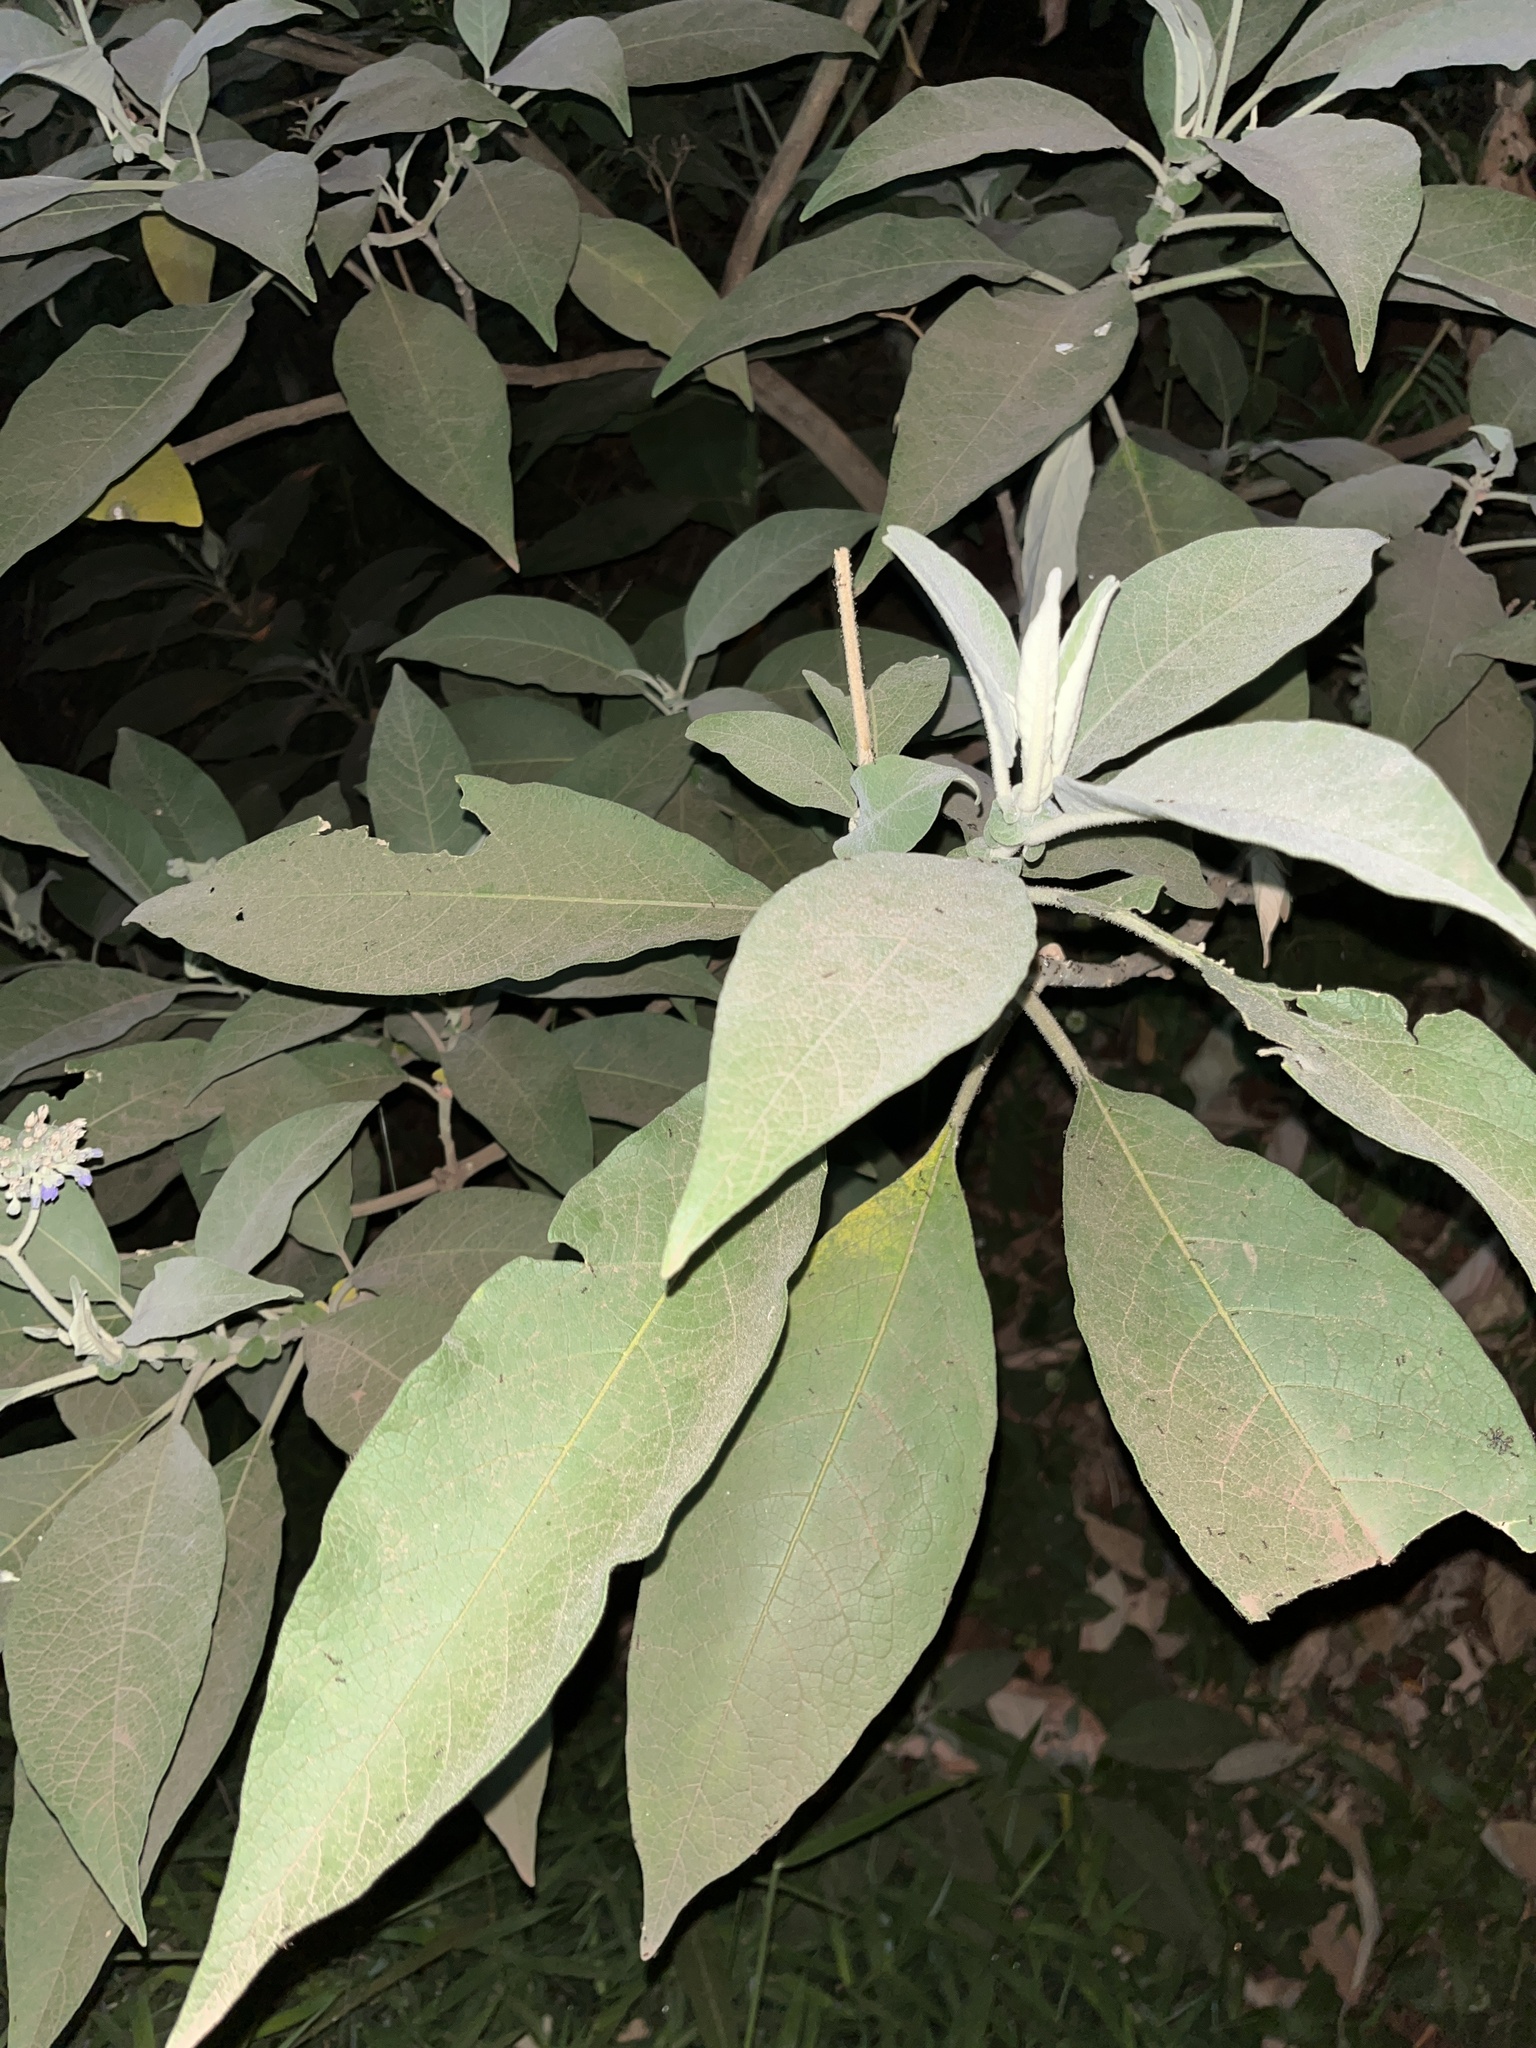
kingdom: Plantae
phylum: Tracheophyta
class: Magnoliopsida
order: Solanales
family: Solanaceae
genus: Solanum
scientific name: Solanum mauritianum
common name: Earleaf nightshade
